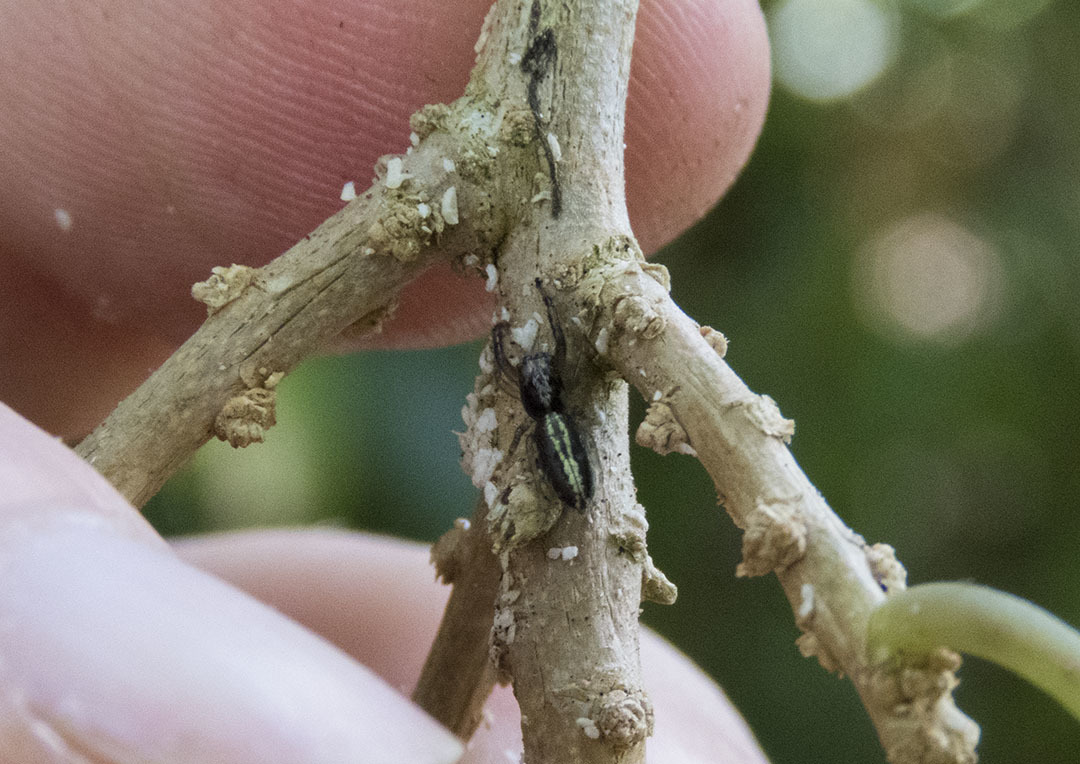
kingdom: Animalia
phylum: Arthropoda
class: Arachnida
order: Araneae
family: Salticidae
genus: Trite
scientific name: Trite planiceps
